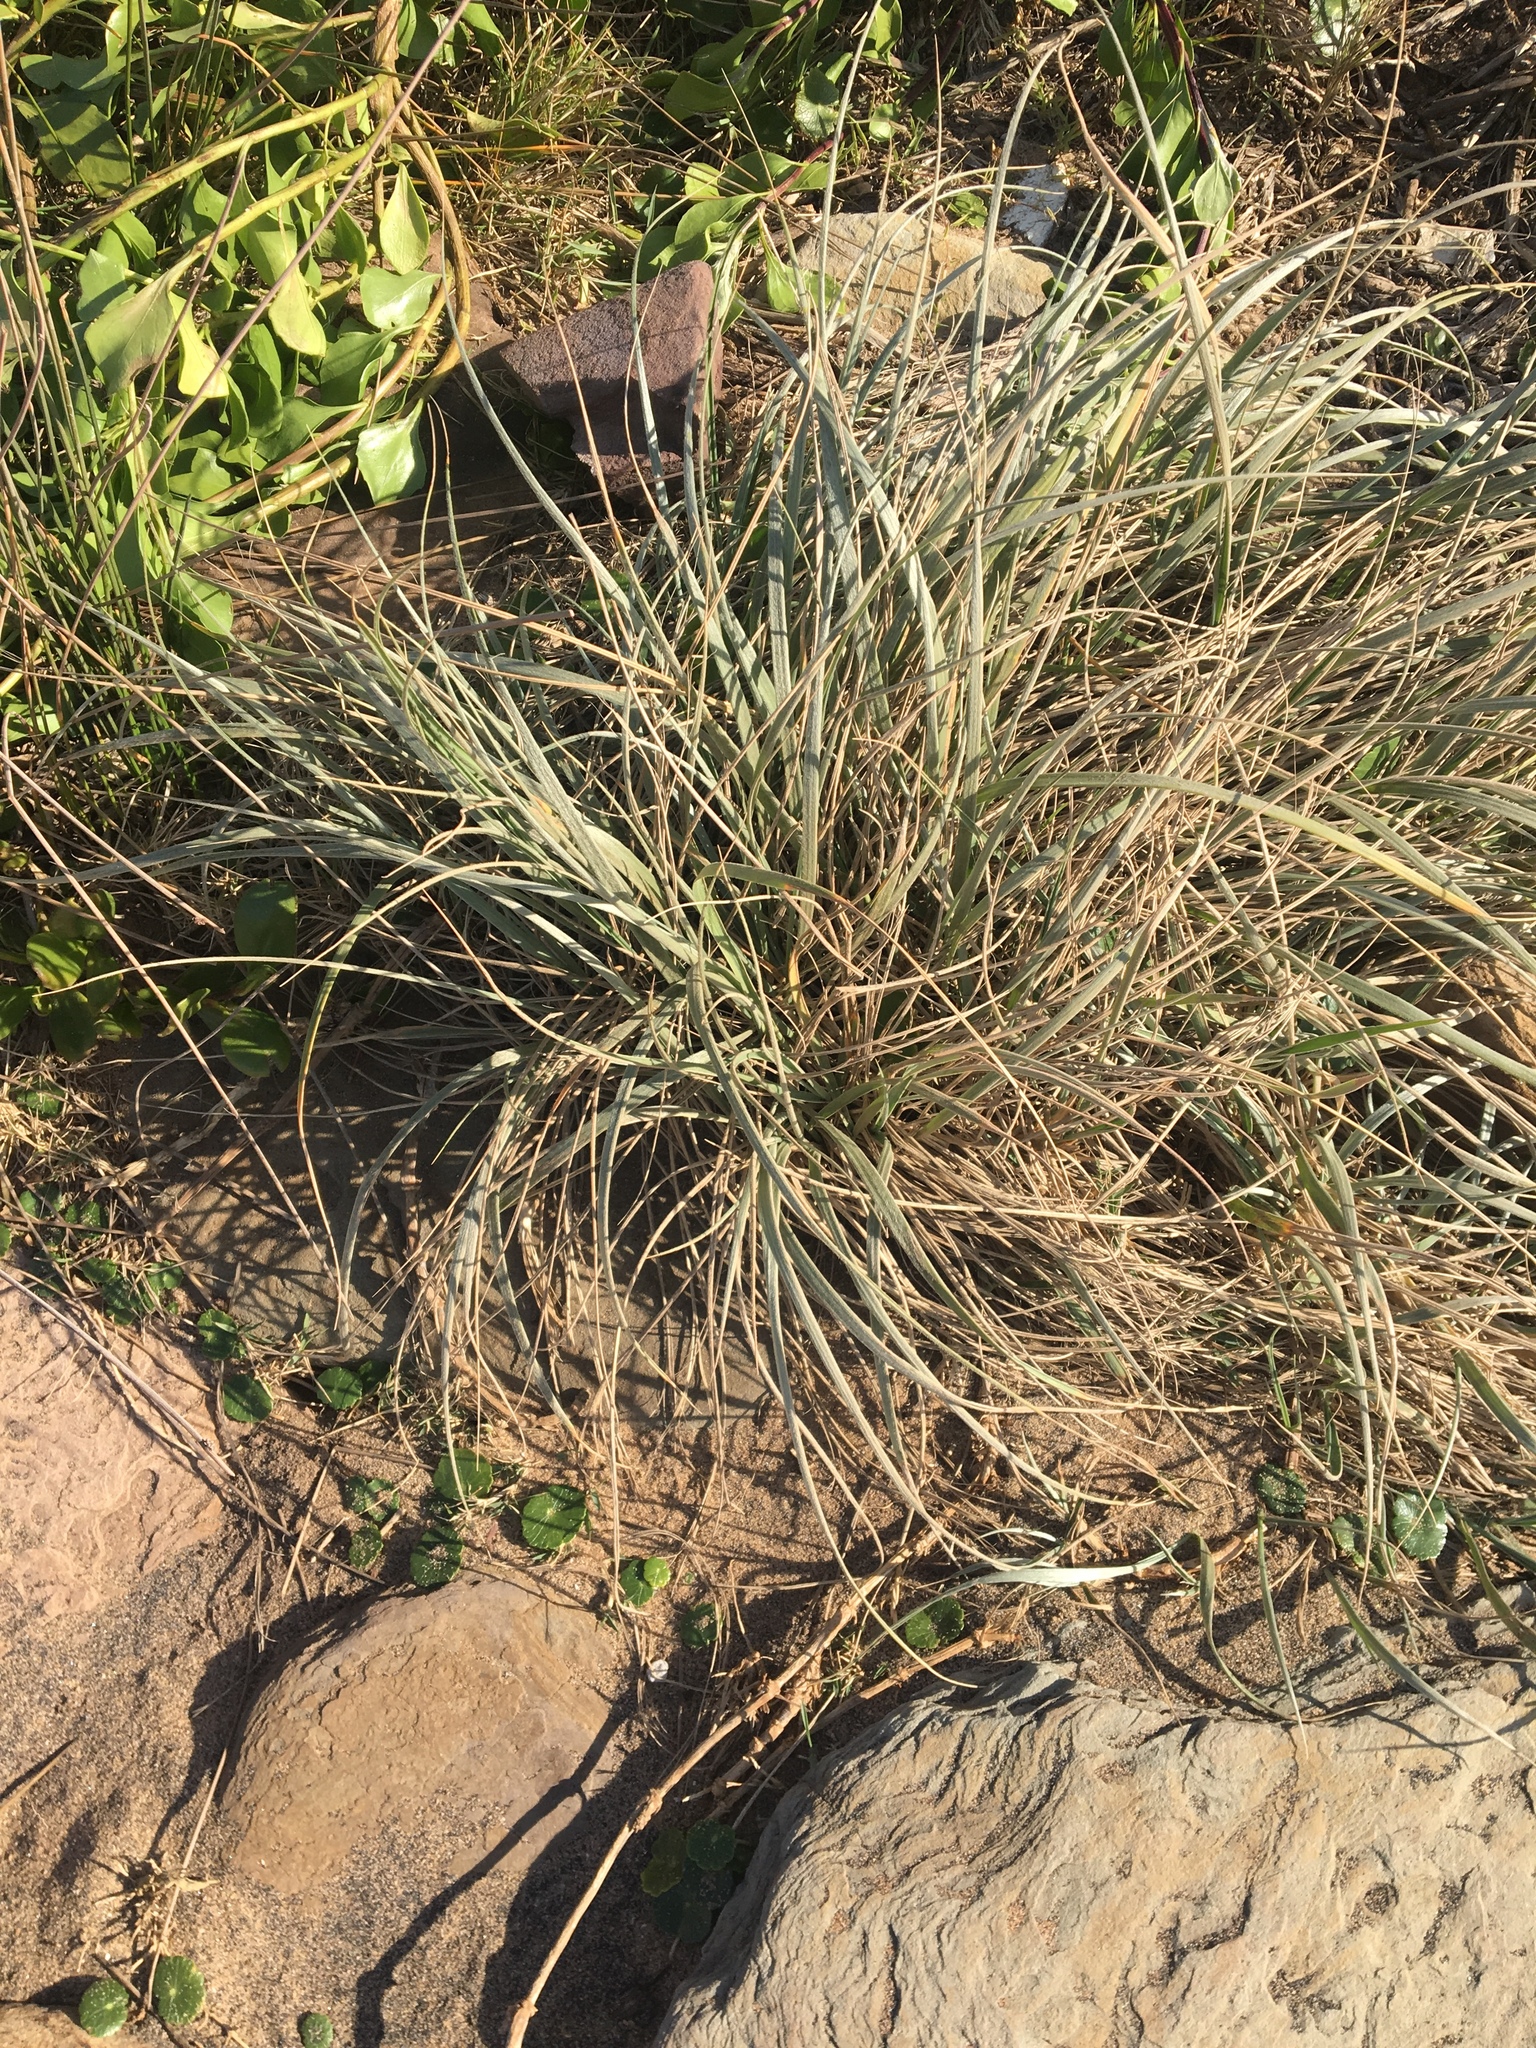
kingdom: Plantae
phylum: Tracheophyta
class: Liliopsida
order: Poales
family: Poaceae
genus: Spinifex
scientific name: Spinifex sericeus
